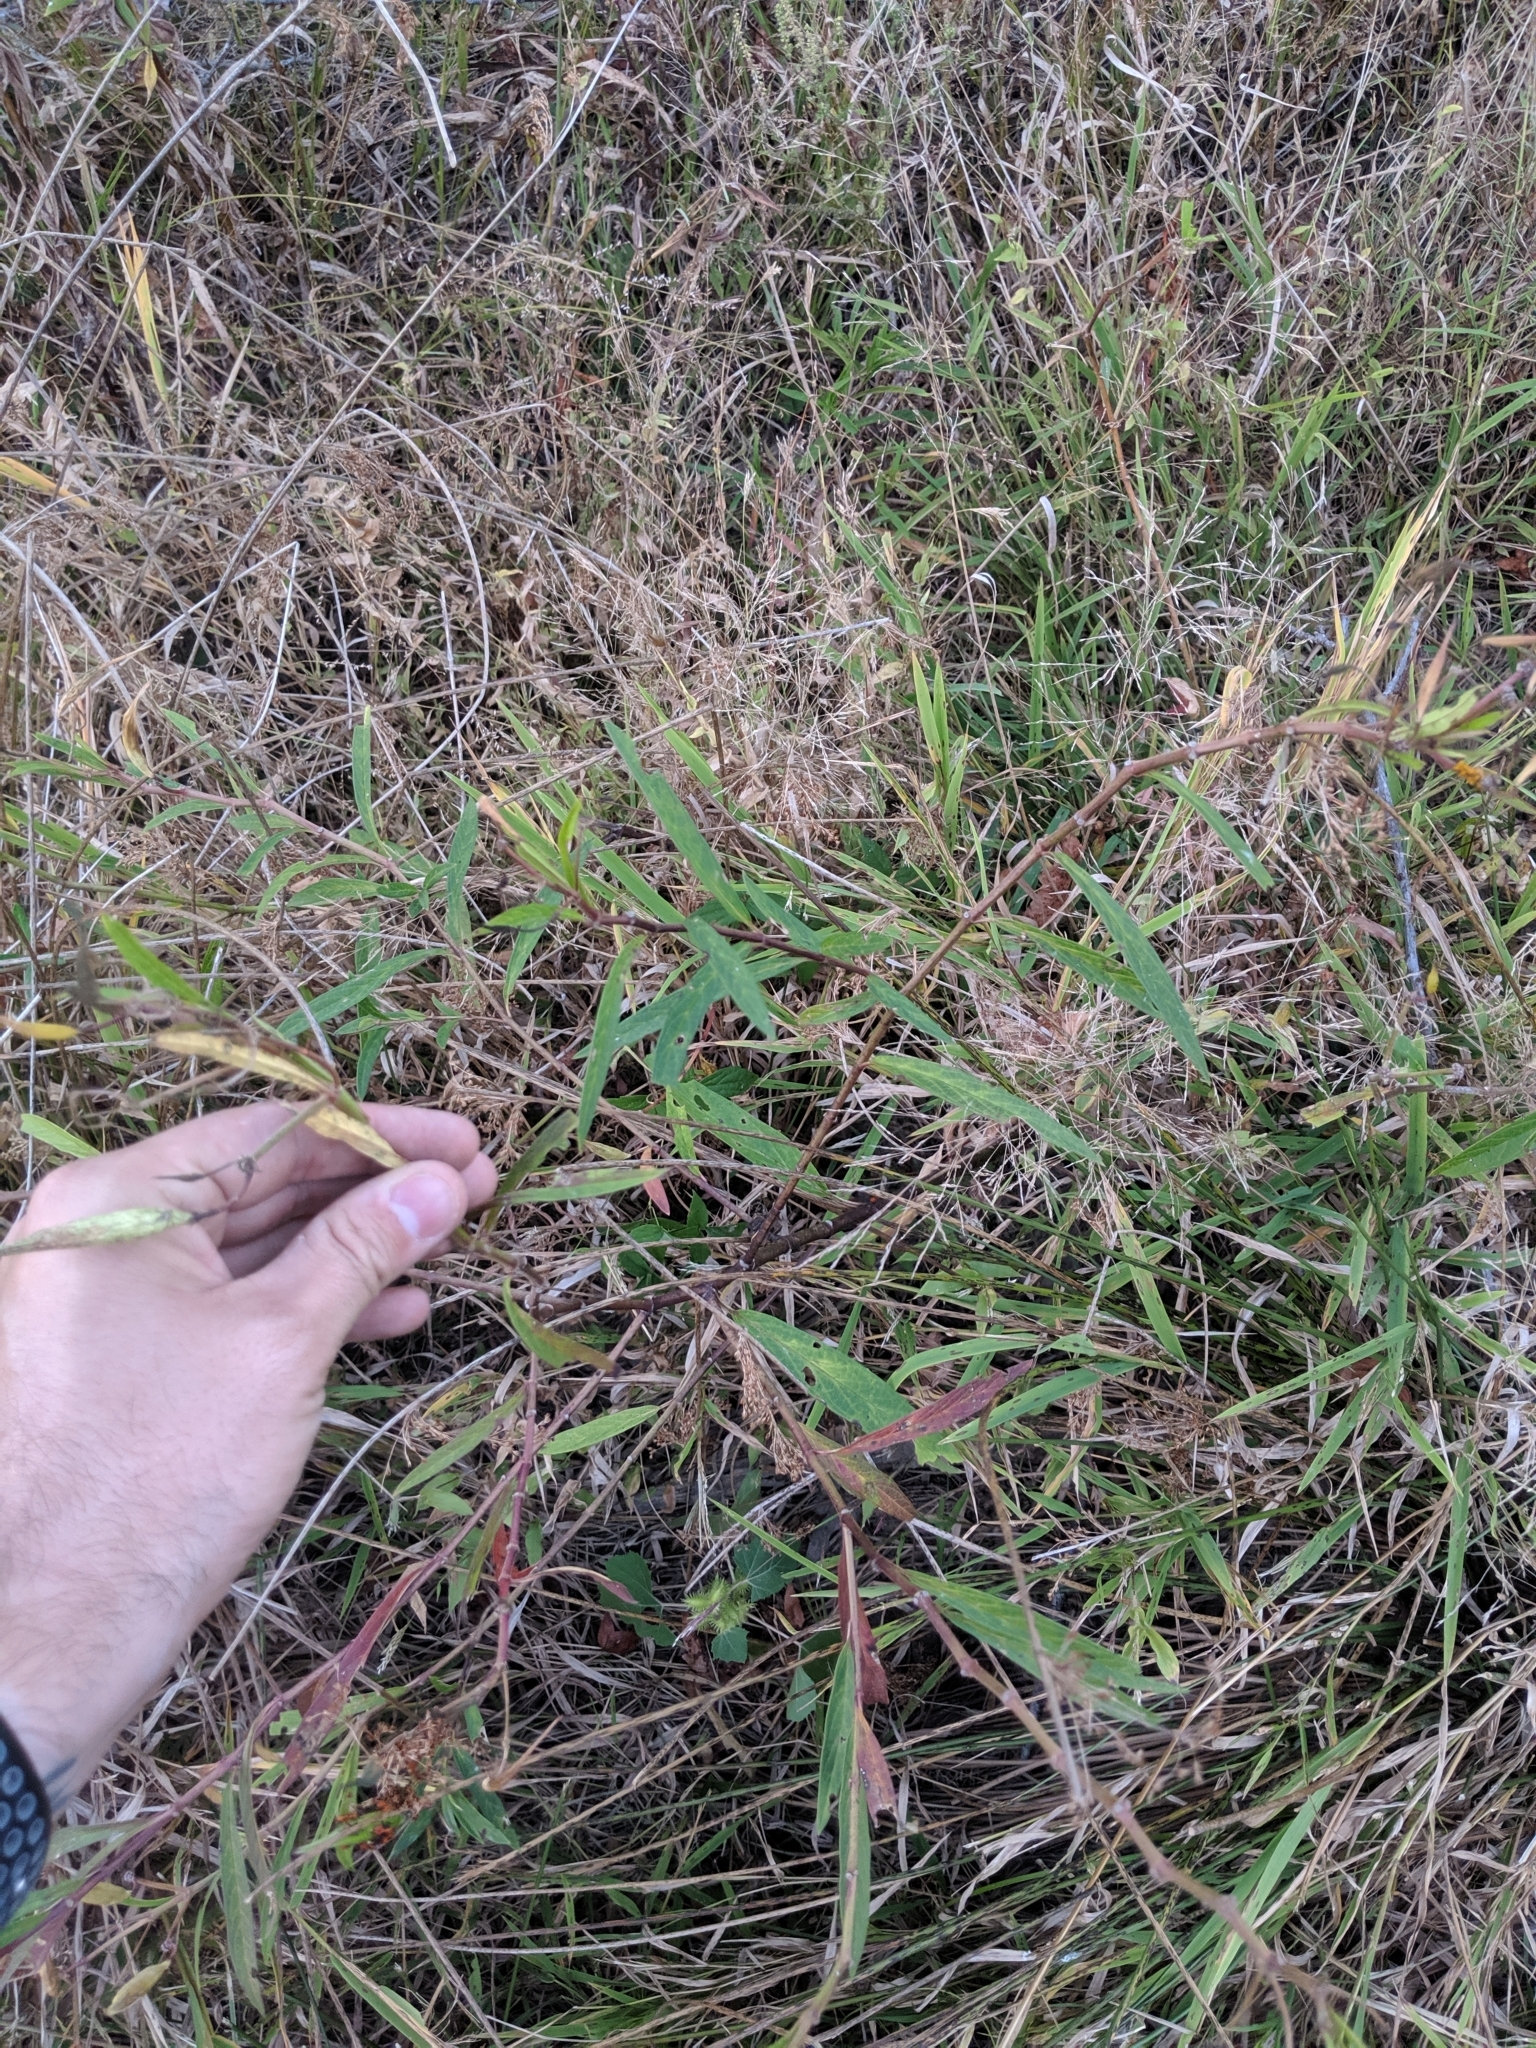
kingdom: Plantae
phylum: Tracheophyta
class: Magnoliopsida
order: Gentianales
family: Apocynaceae
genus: Asclepias
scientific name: Asclepias incarnata
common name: Swamp milkweed
